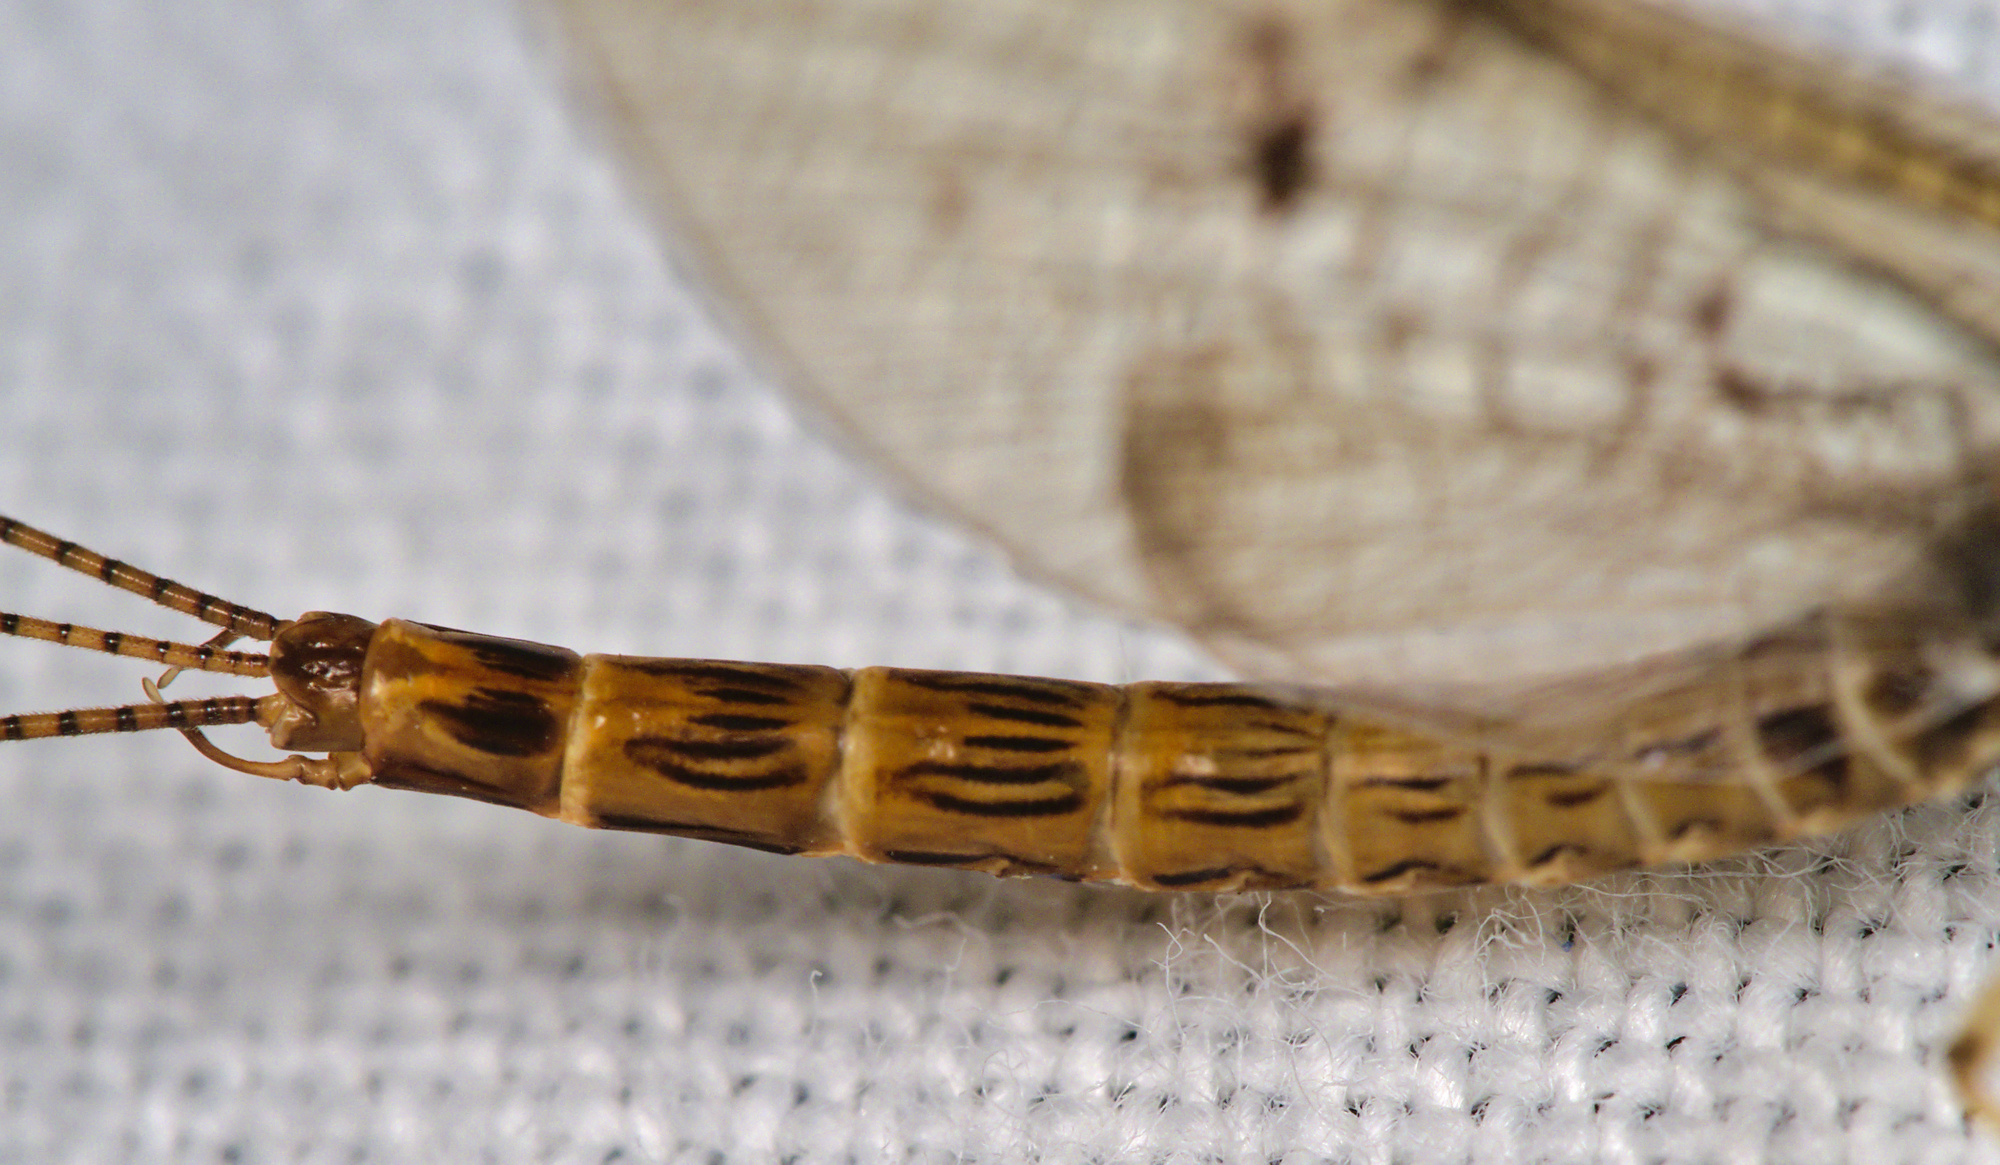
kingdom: Animalia
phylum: Arthropoda
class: Insecta
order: Ephemeroptera
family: Ephemeridae
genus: Ephemera
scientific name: Ephemera lineata
